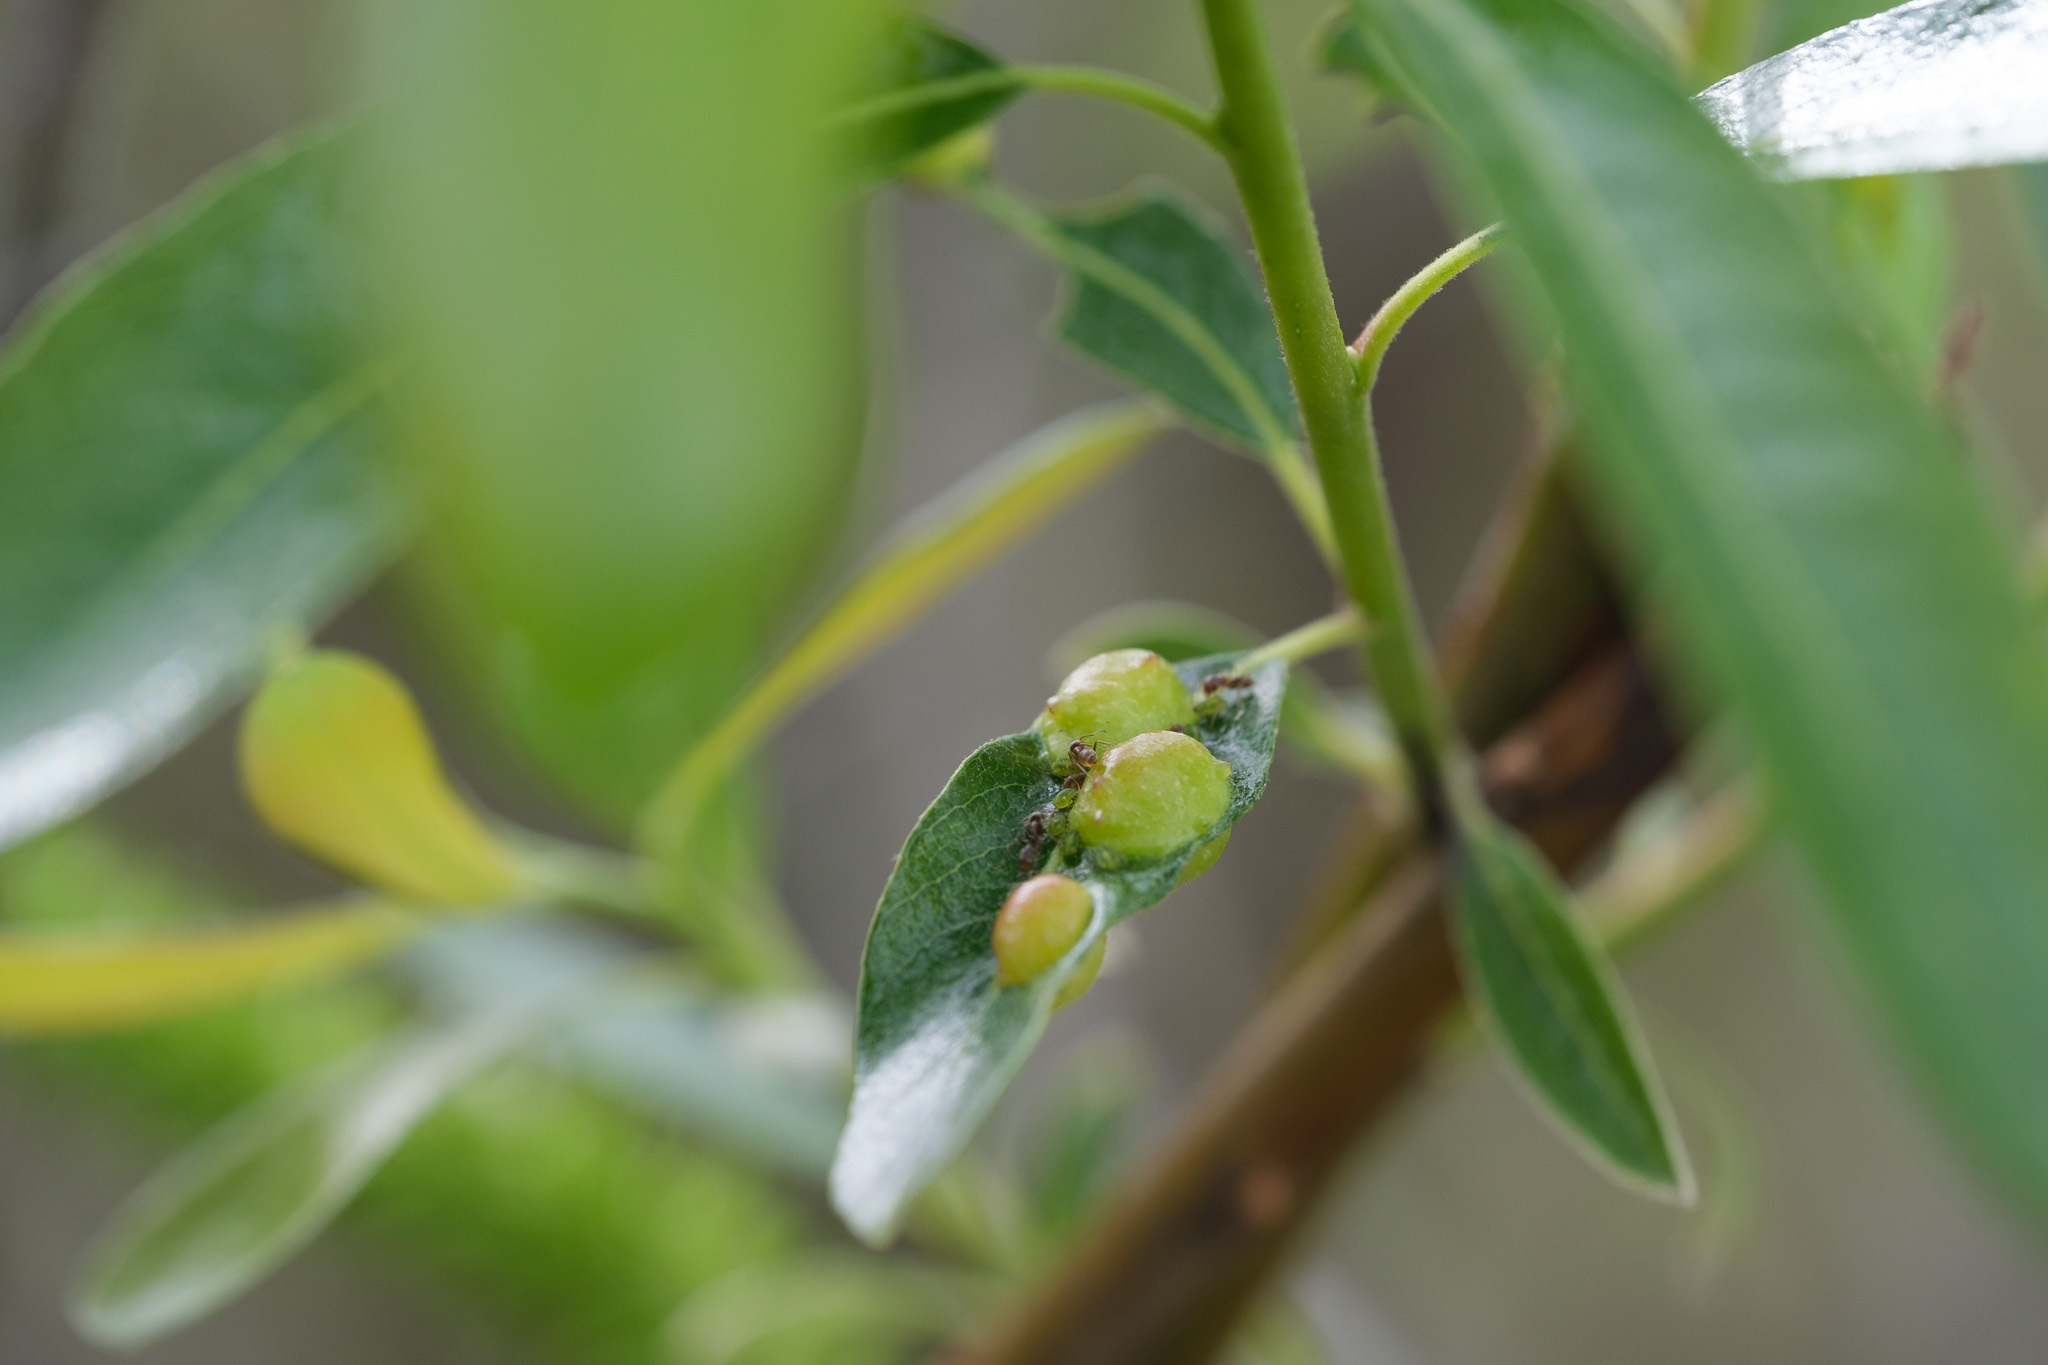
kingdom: Animalia
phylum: Arthropoda
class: Insecta
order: Hymenoptera
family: Formicidae
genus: Linepithema
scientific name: Linepithema humile
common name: Argentine ant
